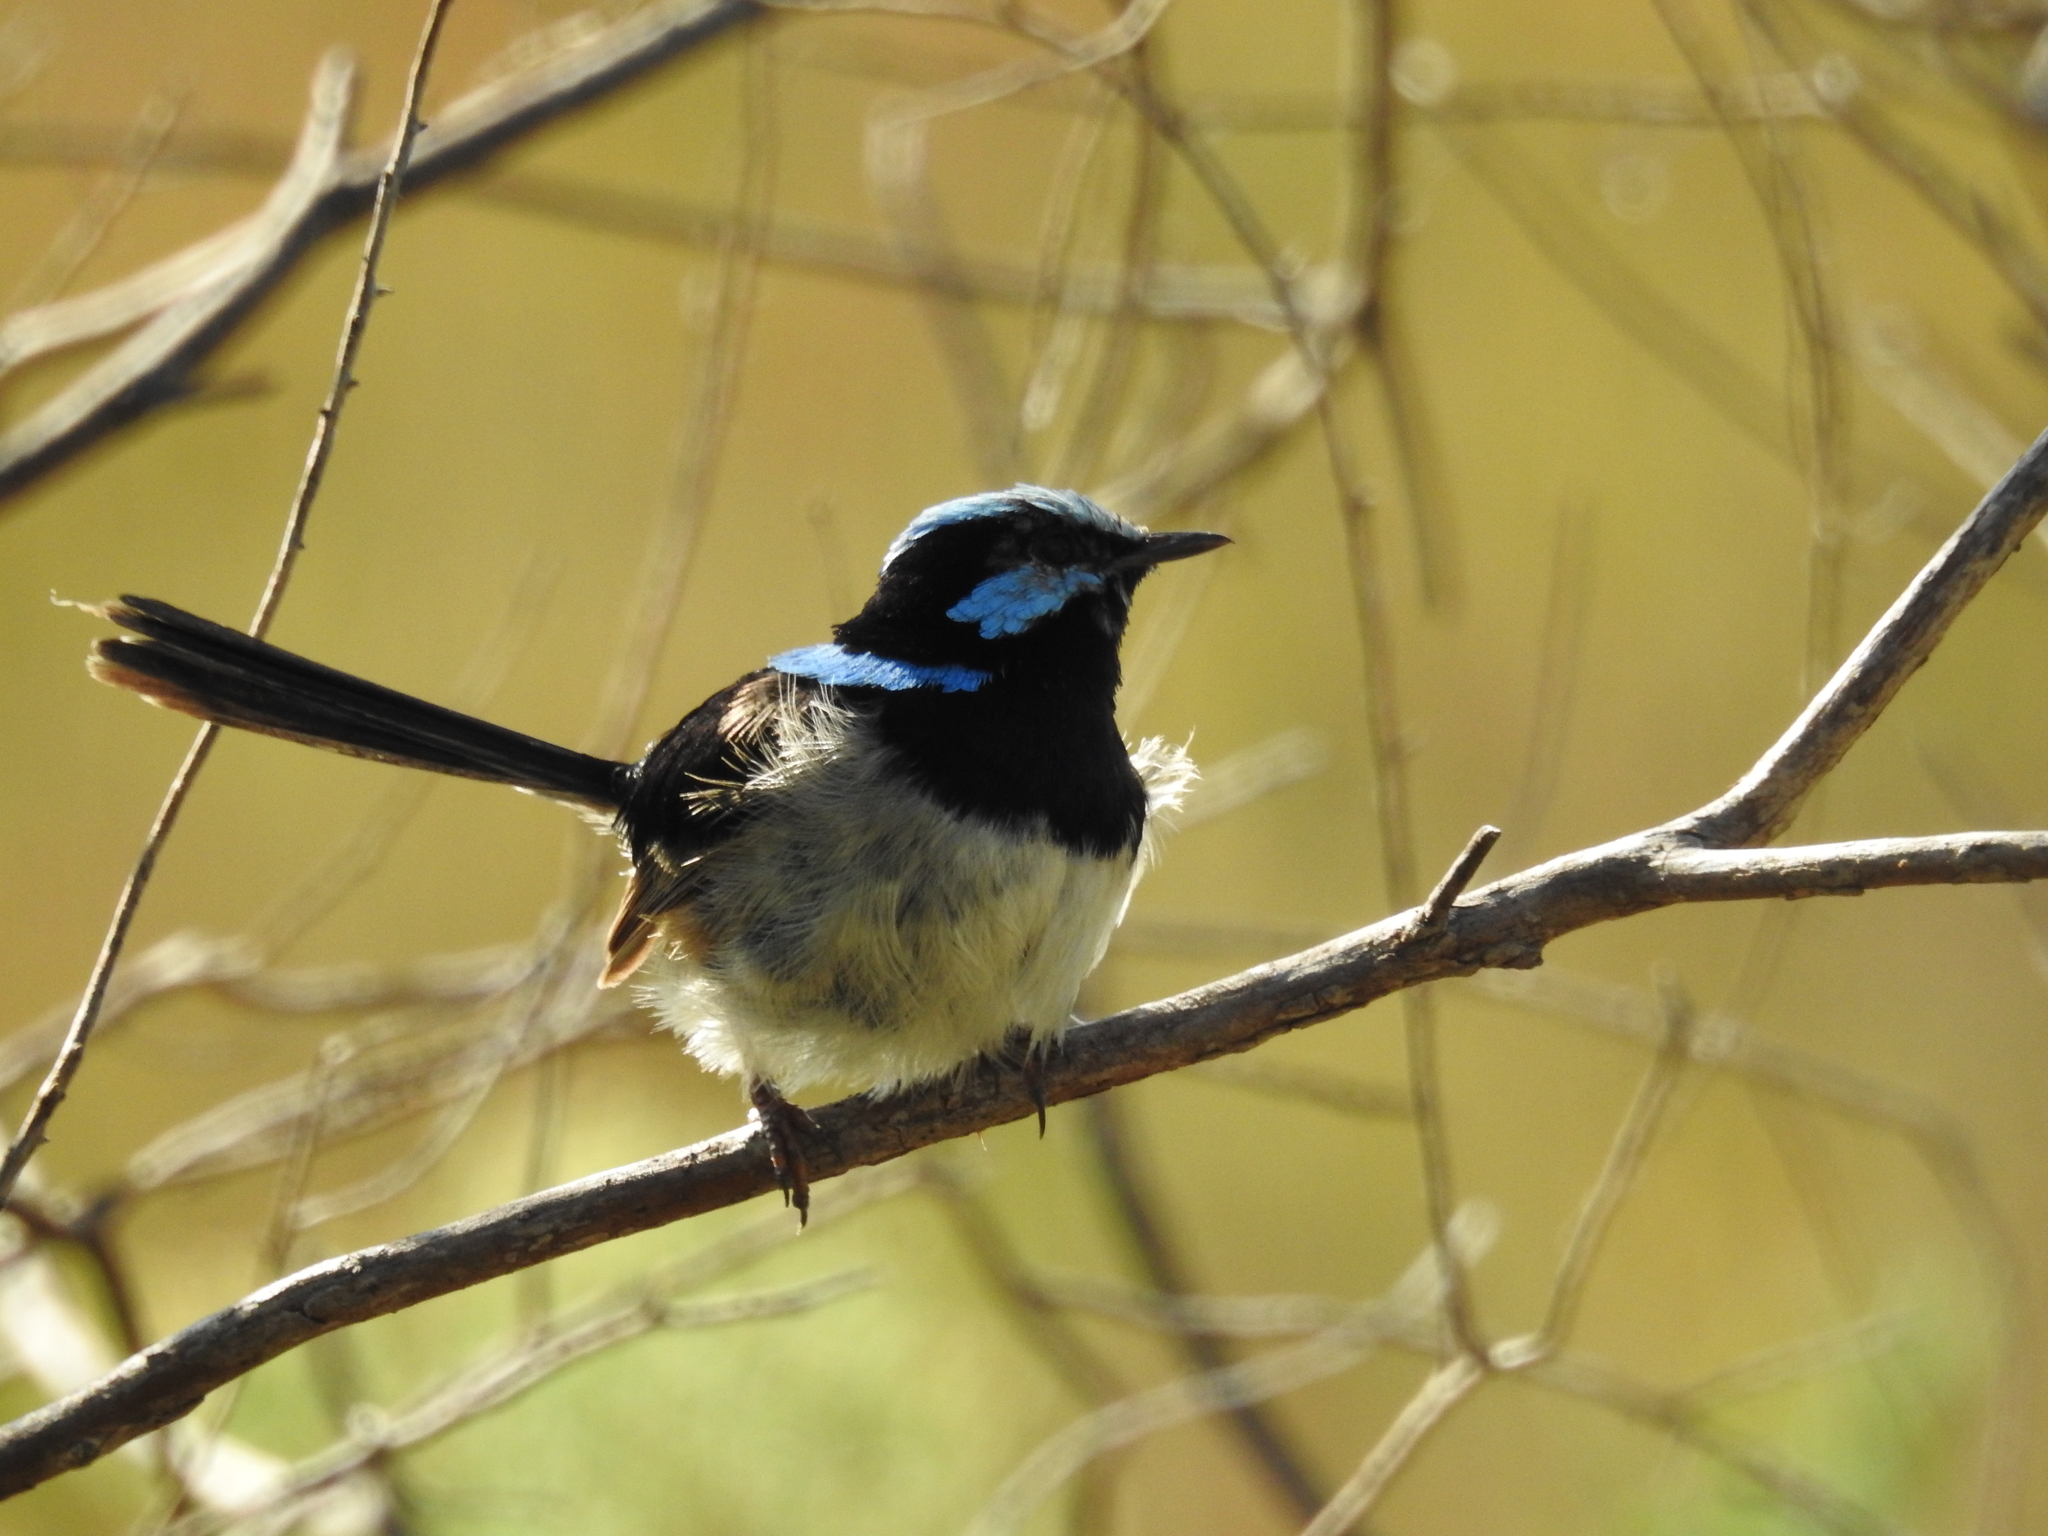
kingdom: Animalia
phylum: Chordata
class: Aves
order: Passeriformes
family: Maluridae
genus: Malurus
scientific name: Malurus cyaneus
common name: Superb fairywren
